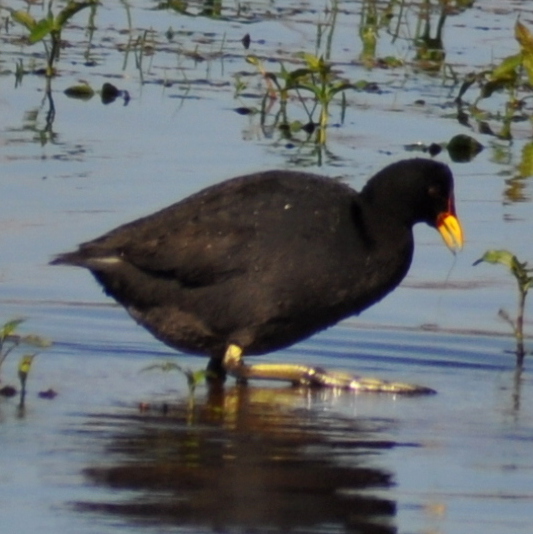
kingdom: Animalia
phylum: Chordata
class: Aves
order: Gruiformes
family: Rallidae
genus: Fulica
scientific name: Fulica rufifrons
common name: Red-fronted coot
